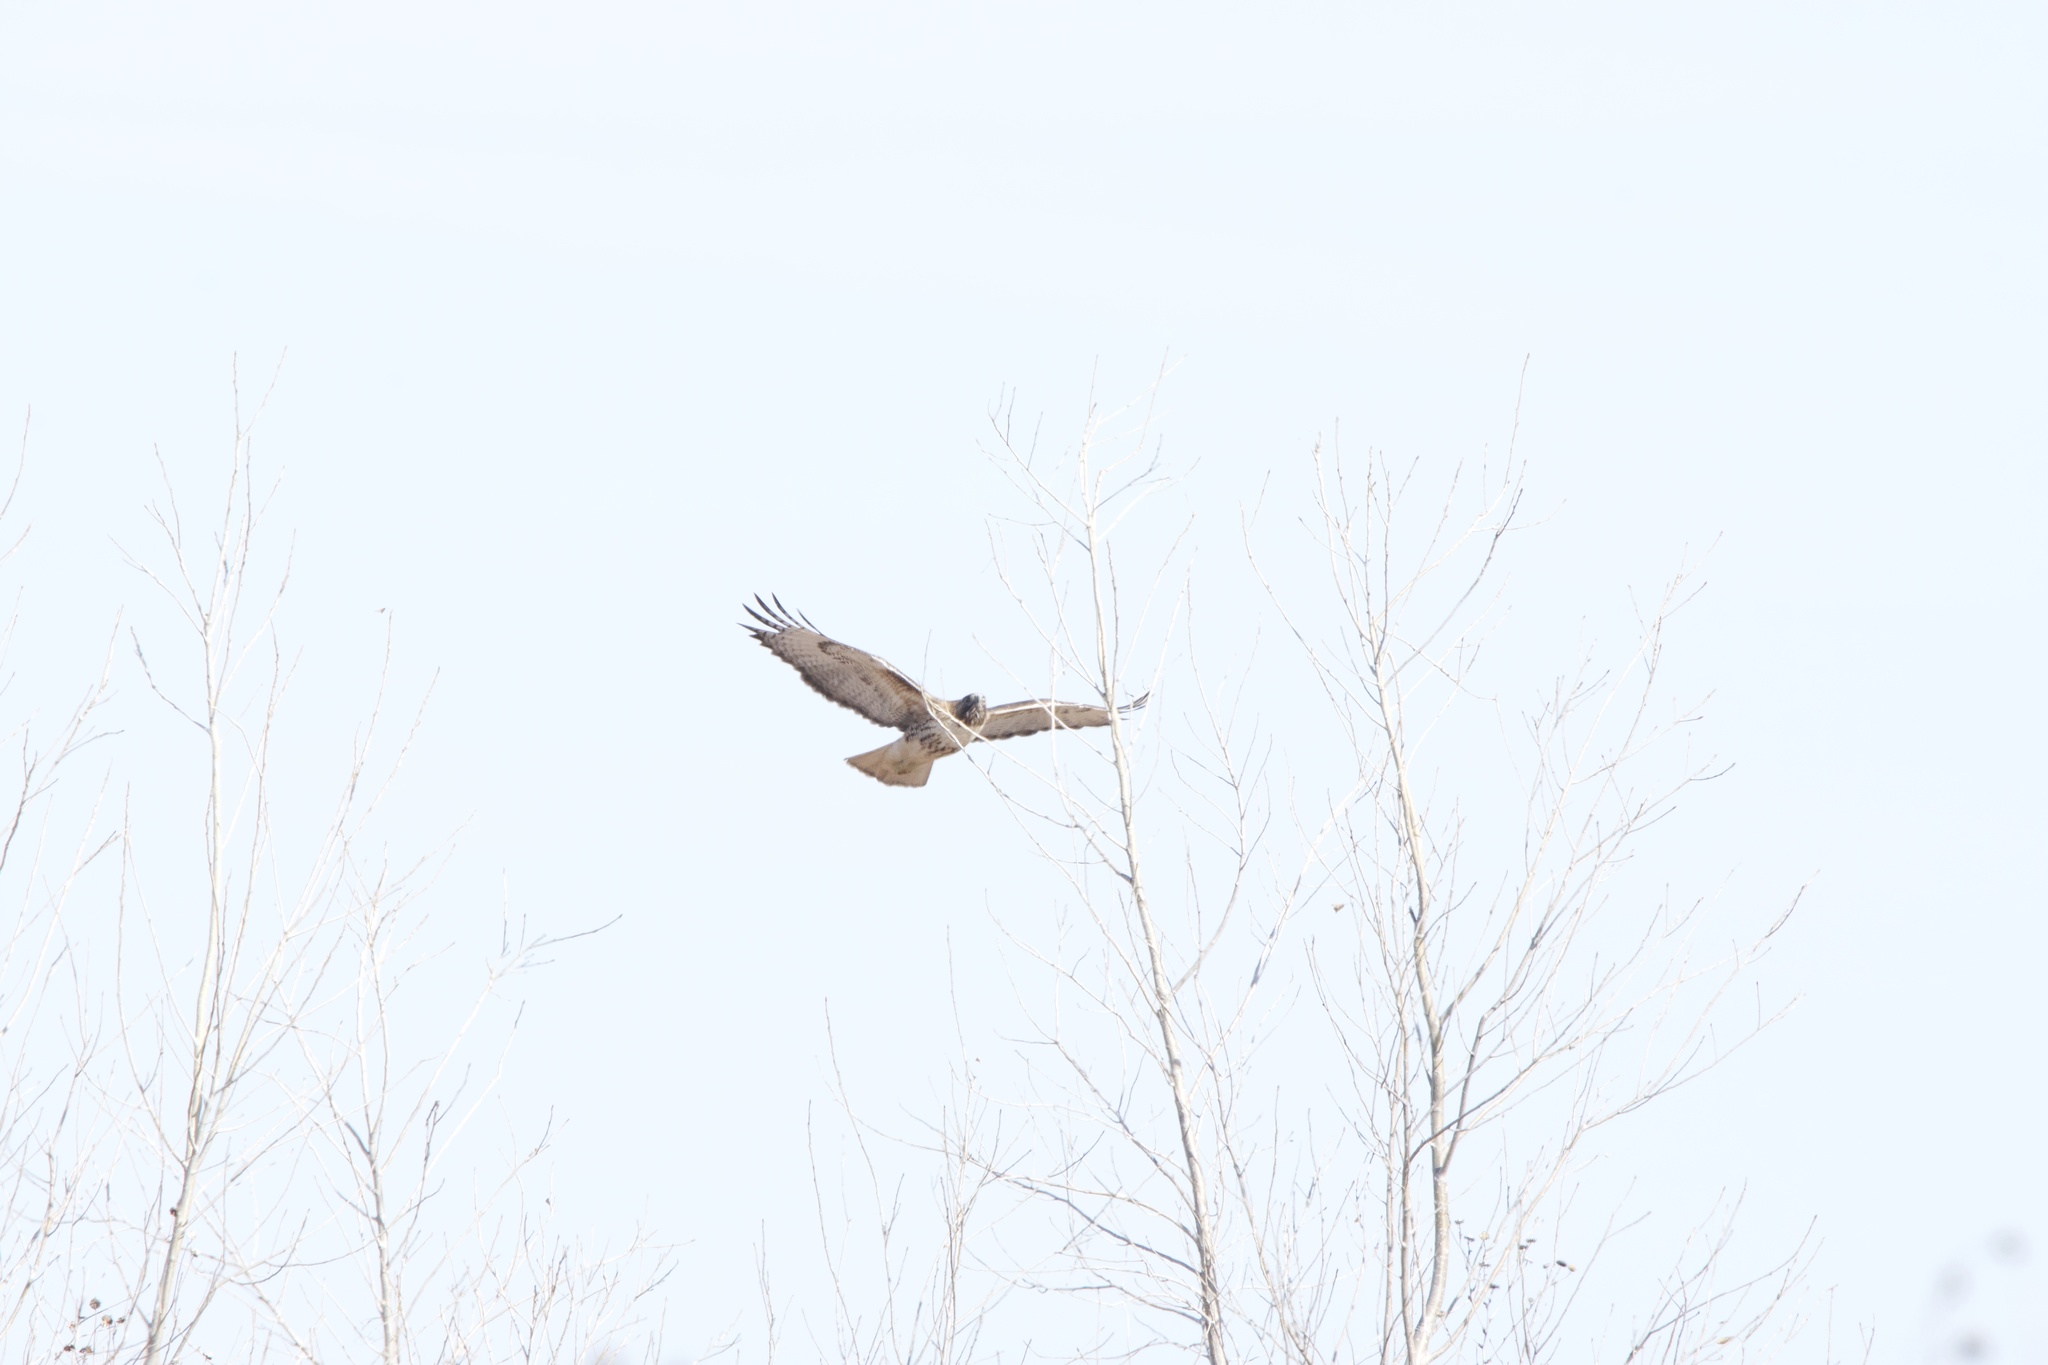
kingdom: Animalia
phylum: Chordata
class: Aves
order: Accipitriformes
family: Accipitridae
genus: Buteo
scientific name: Buteo jamaicensis
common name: Red-tailed hawk
